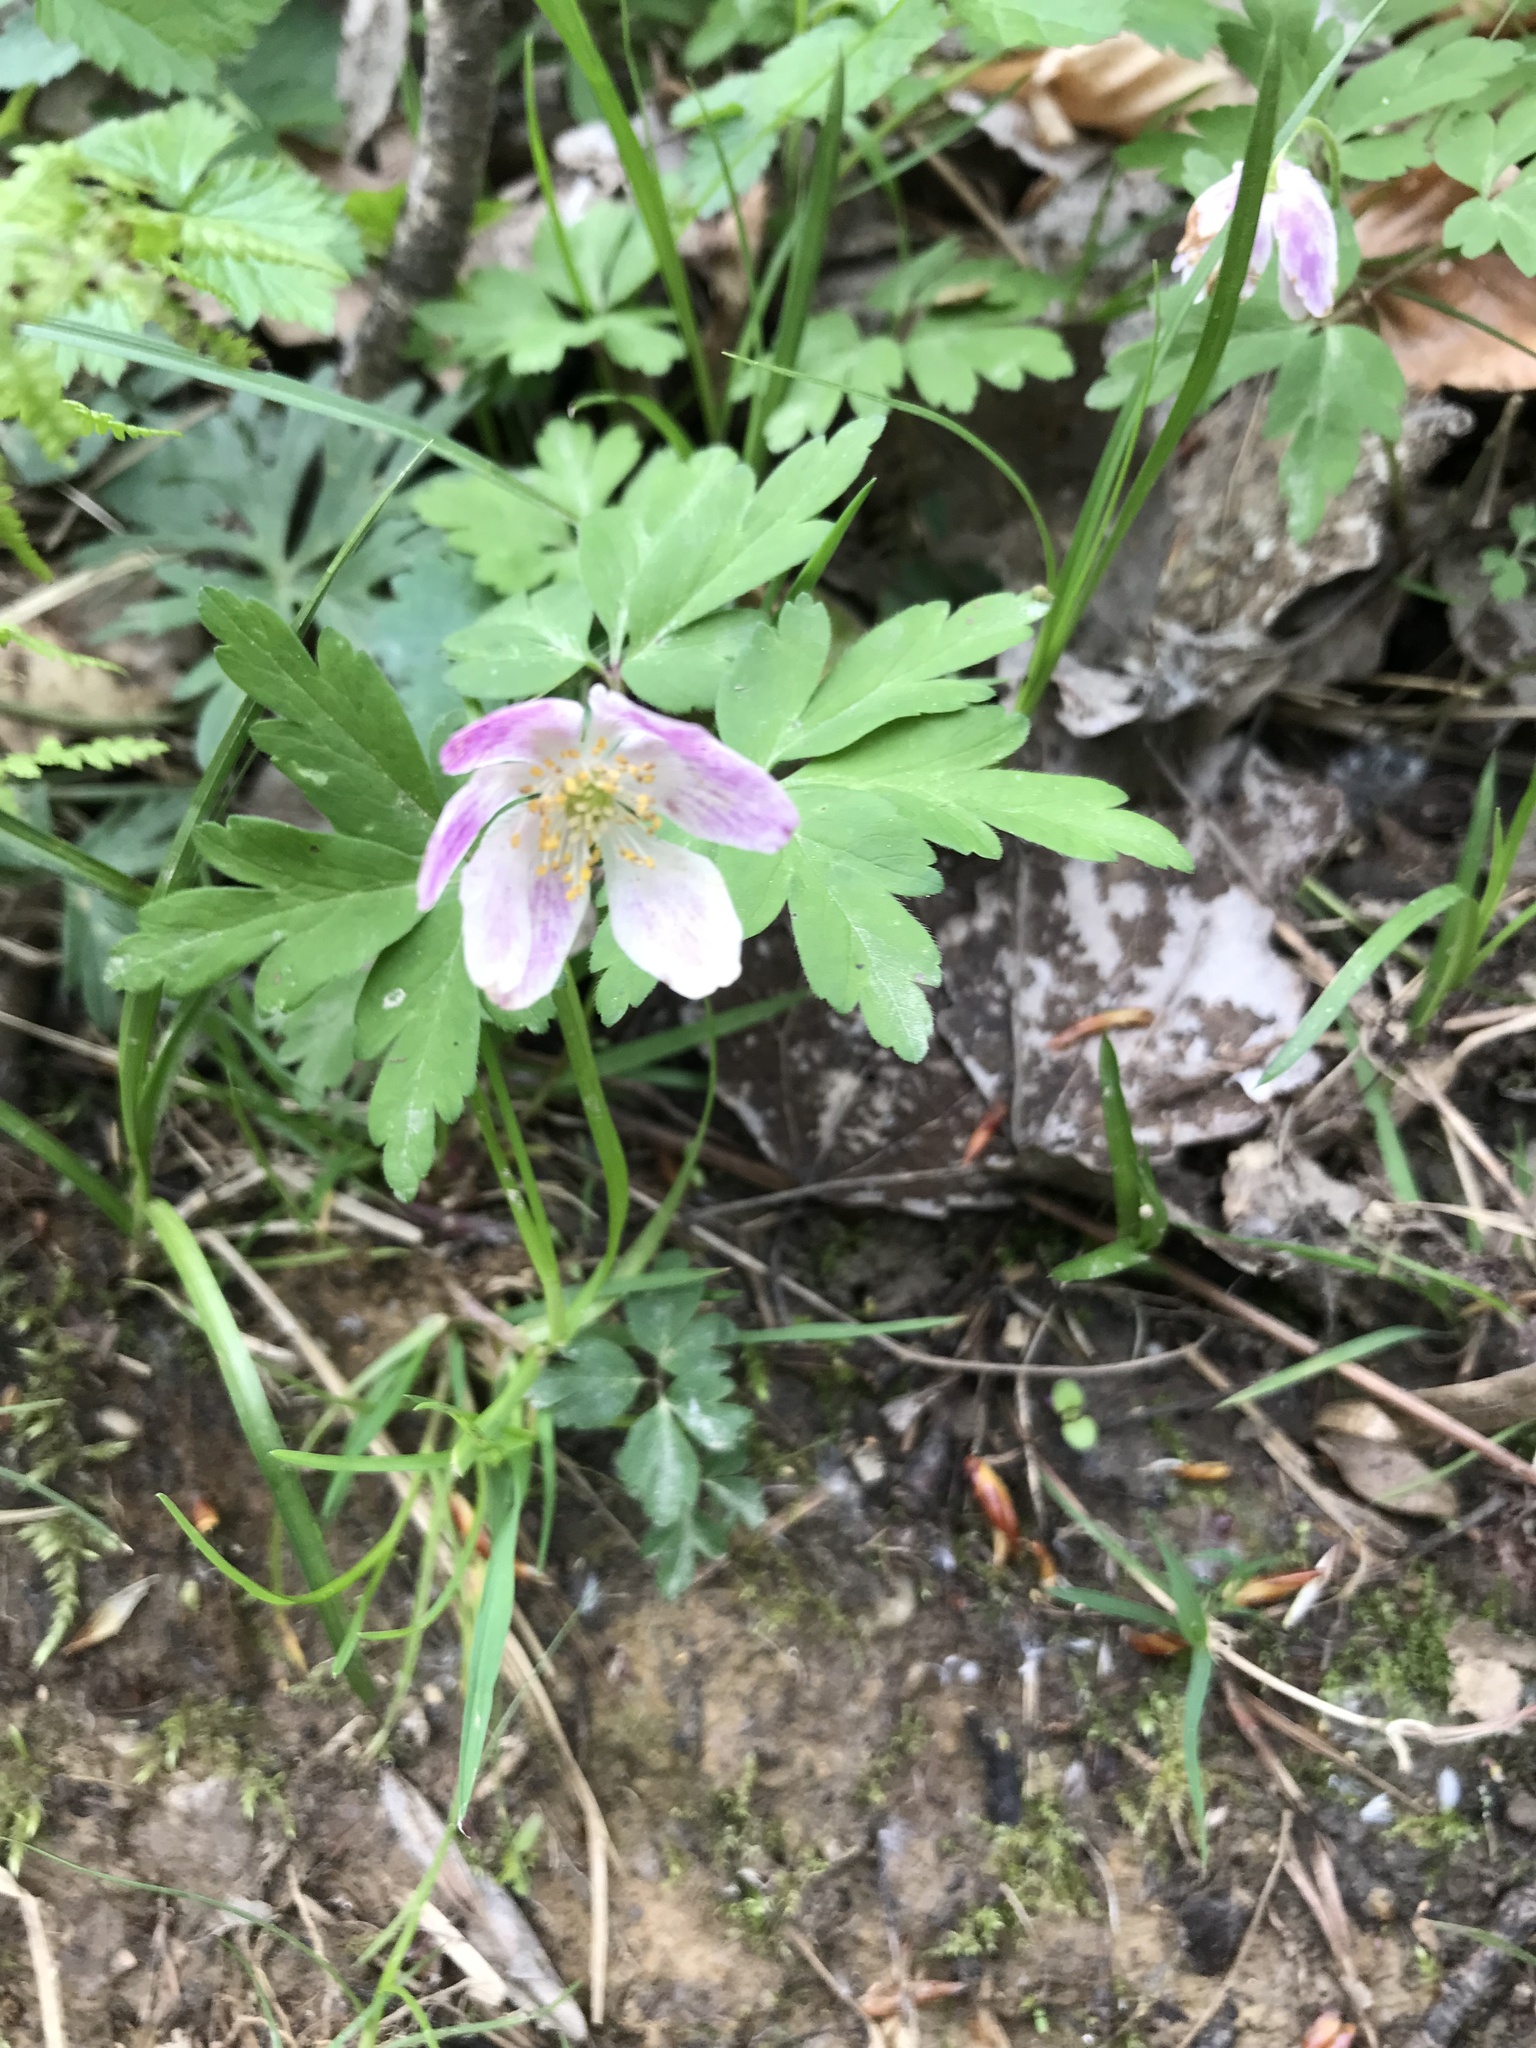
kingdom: Plantae
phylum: Tracheophyta
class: Magnoliopsida
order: Ranunculales
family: Ranunculaceae
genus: Anemone
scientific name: Anemone nemorosa
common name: Wood anemone
